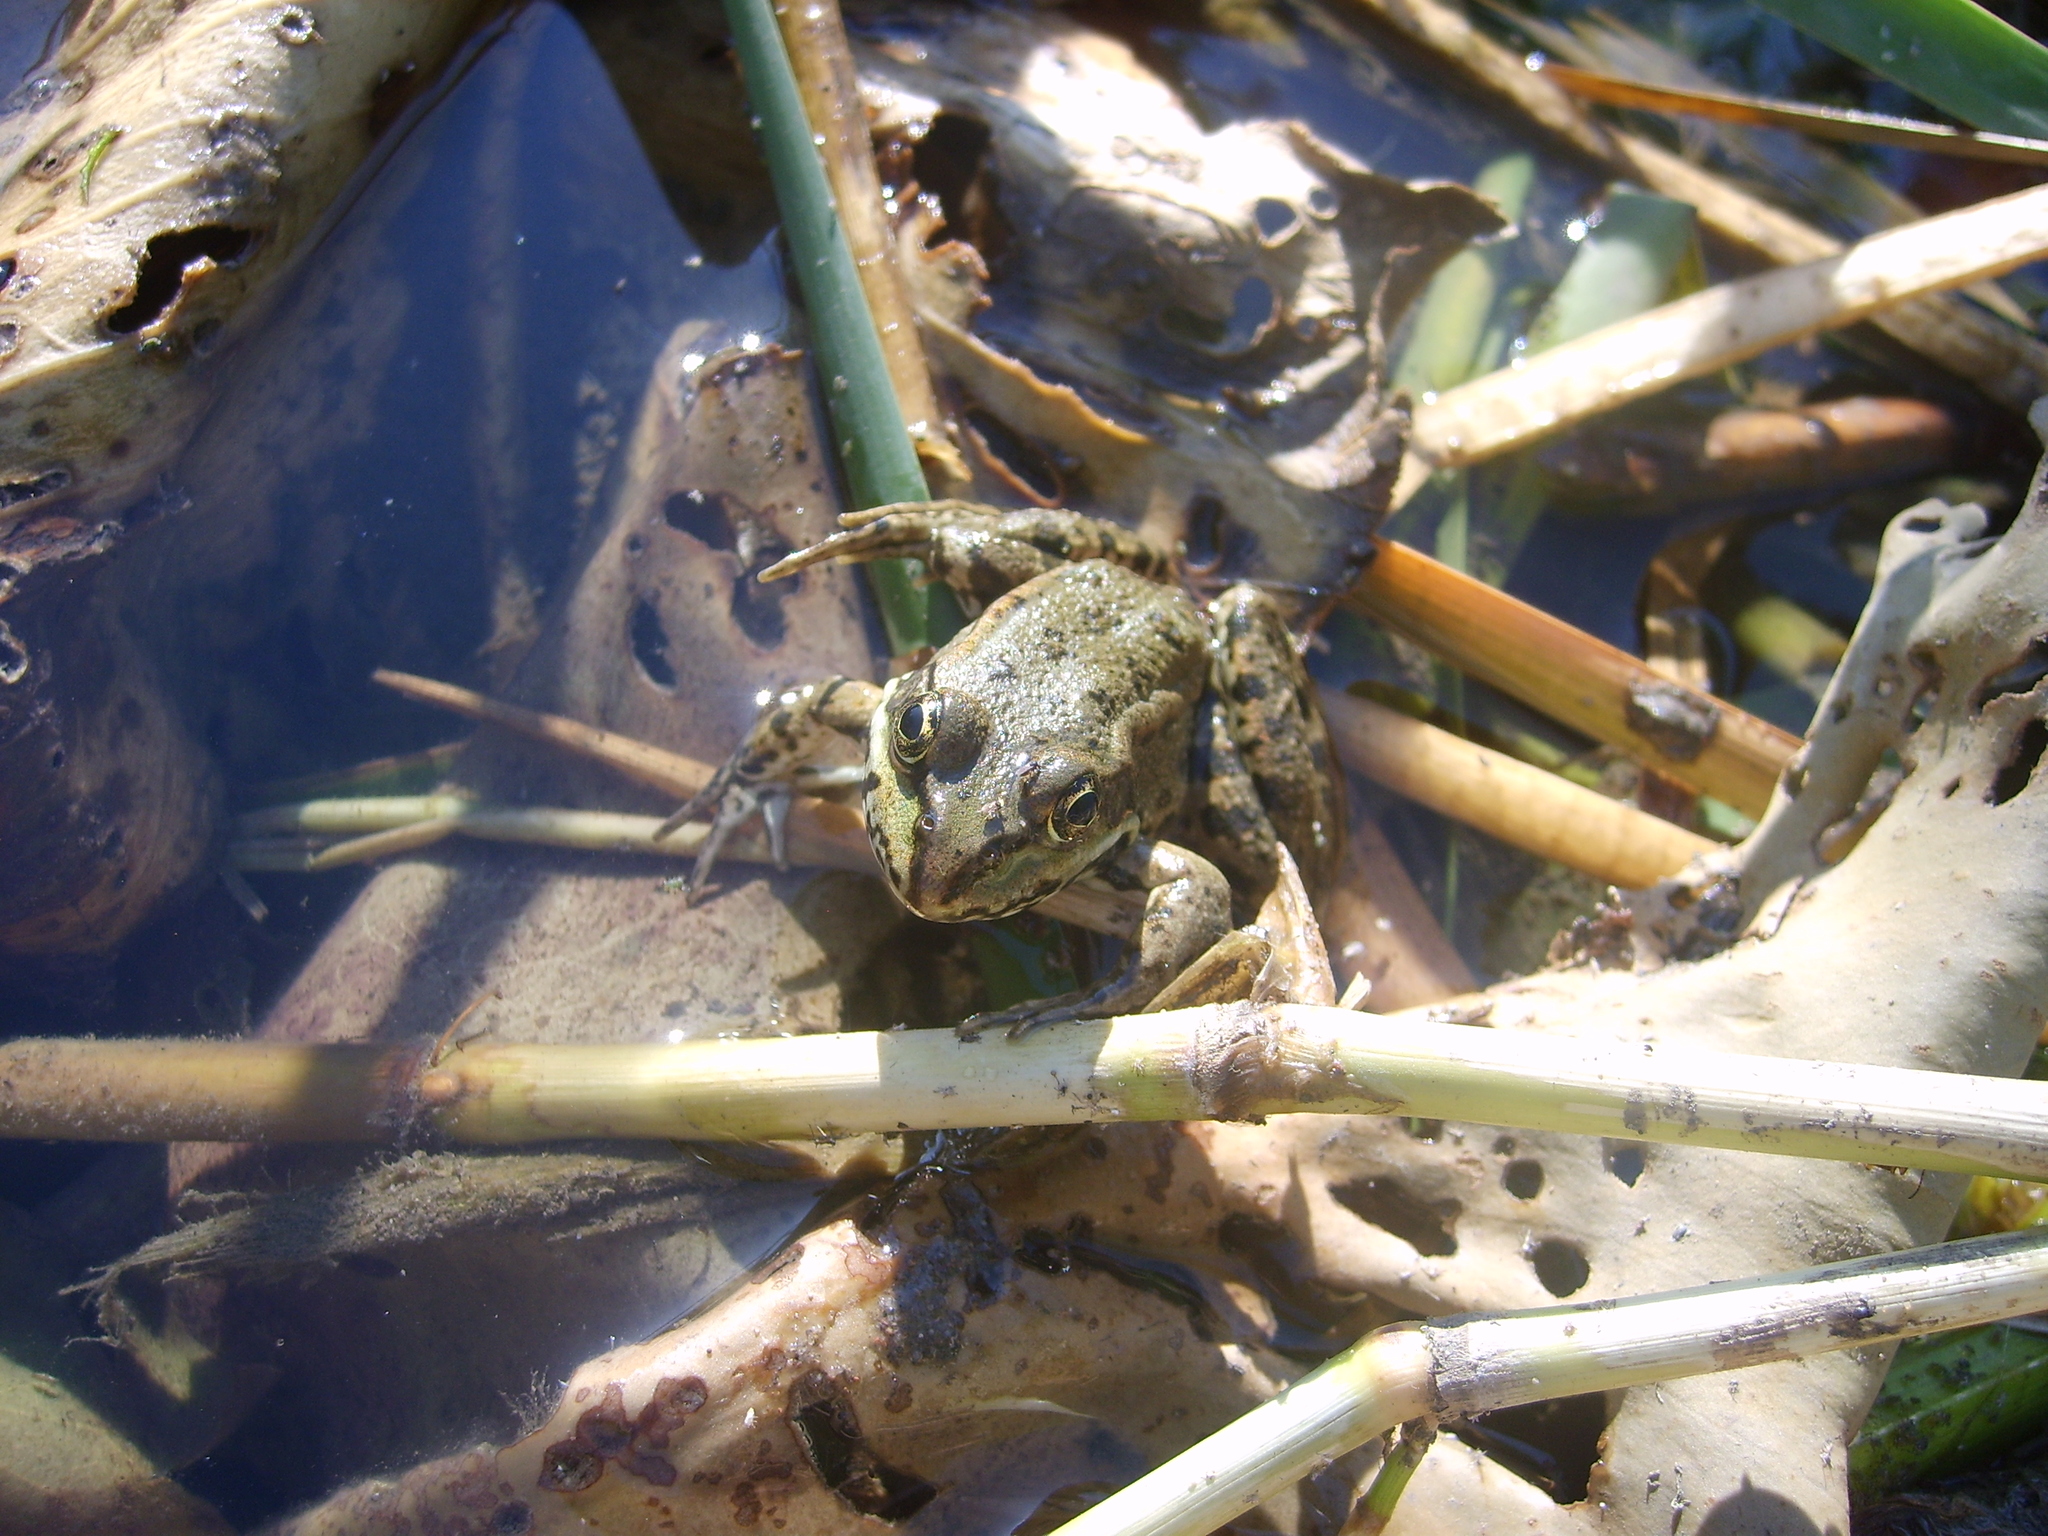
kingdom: Animalia
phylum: Chordata
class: Amphibia
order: Anura
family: Ranidae
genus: Pelophylax
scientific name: Pelophylax ridibundus
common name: Marsh frog
